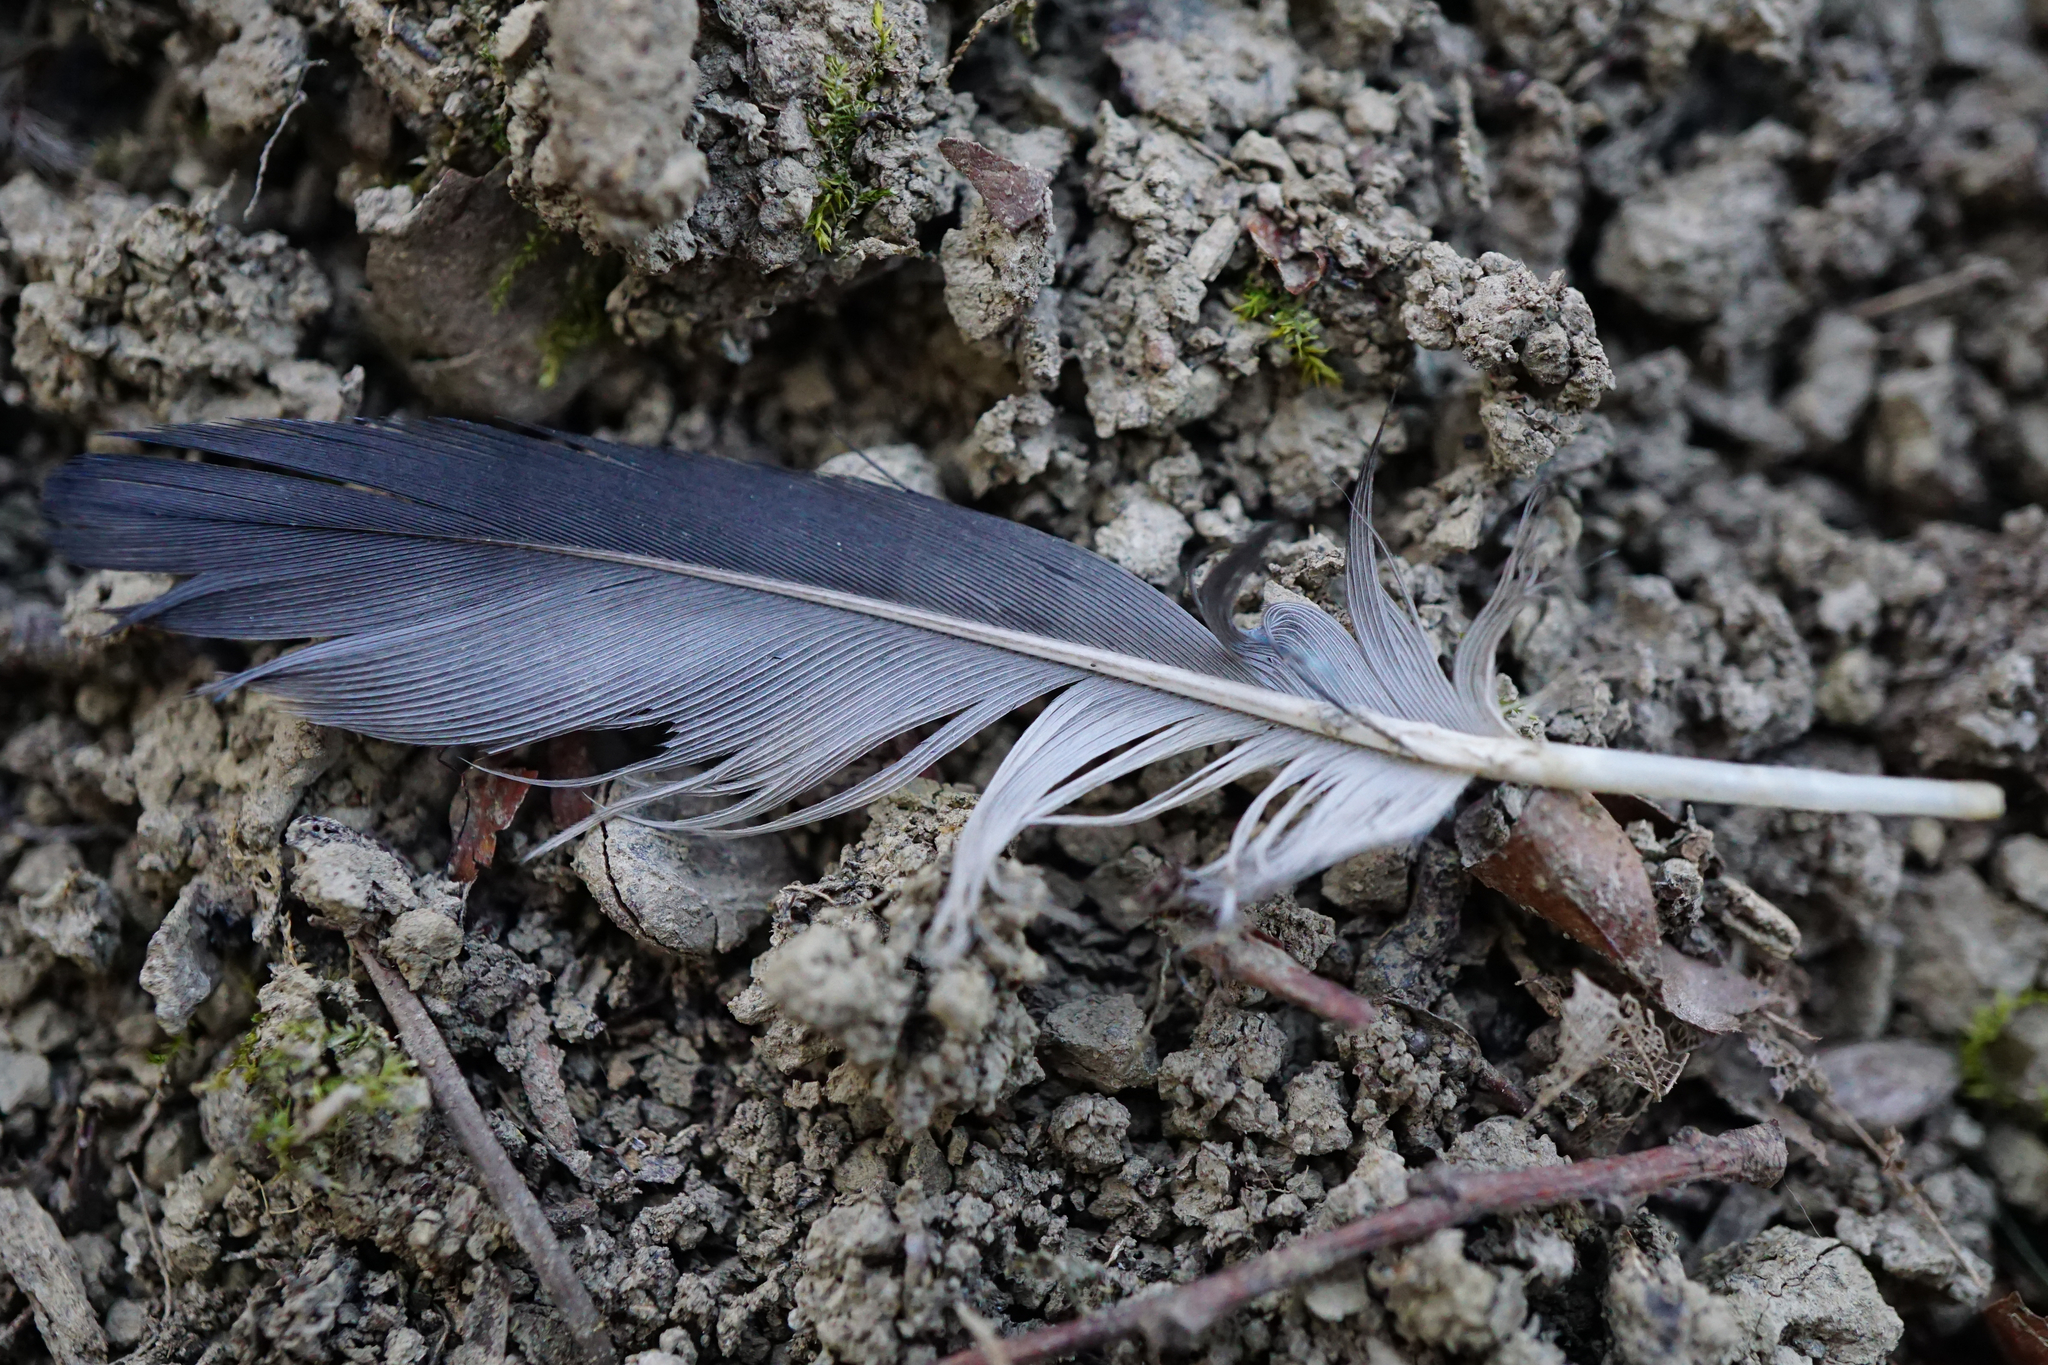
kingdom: Animalia
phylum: Chordata
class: Aves
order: Passeriformes
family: Corvidae
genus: Garrulus
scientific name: Garrulus glandarius
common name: Eurasian jay
